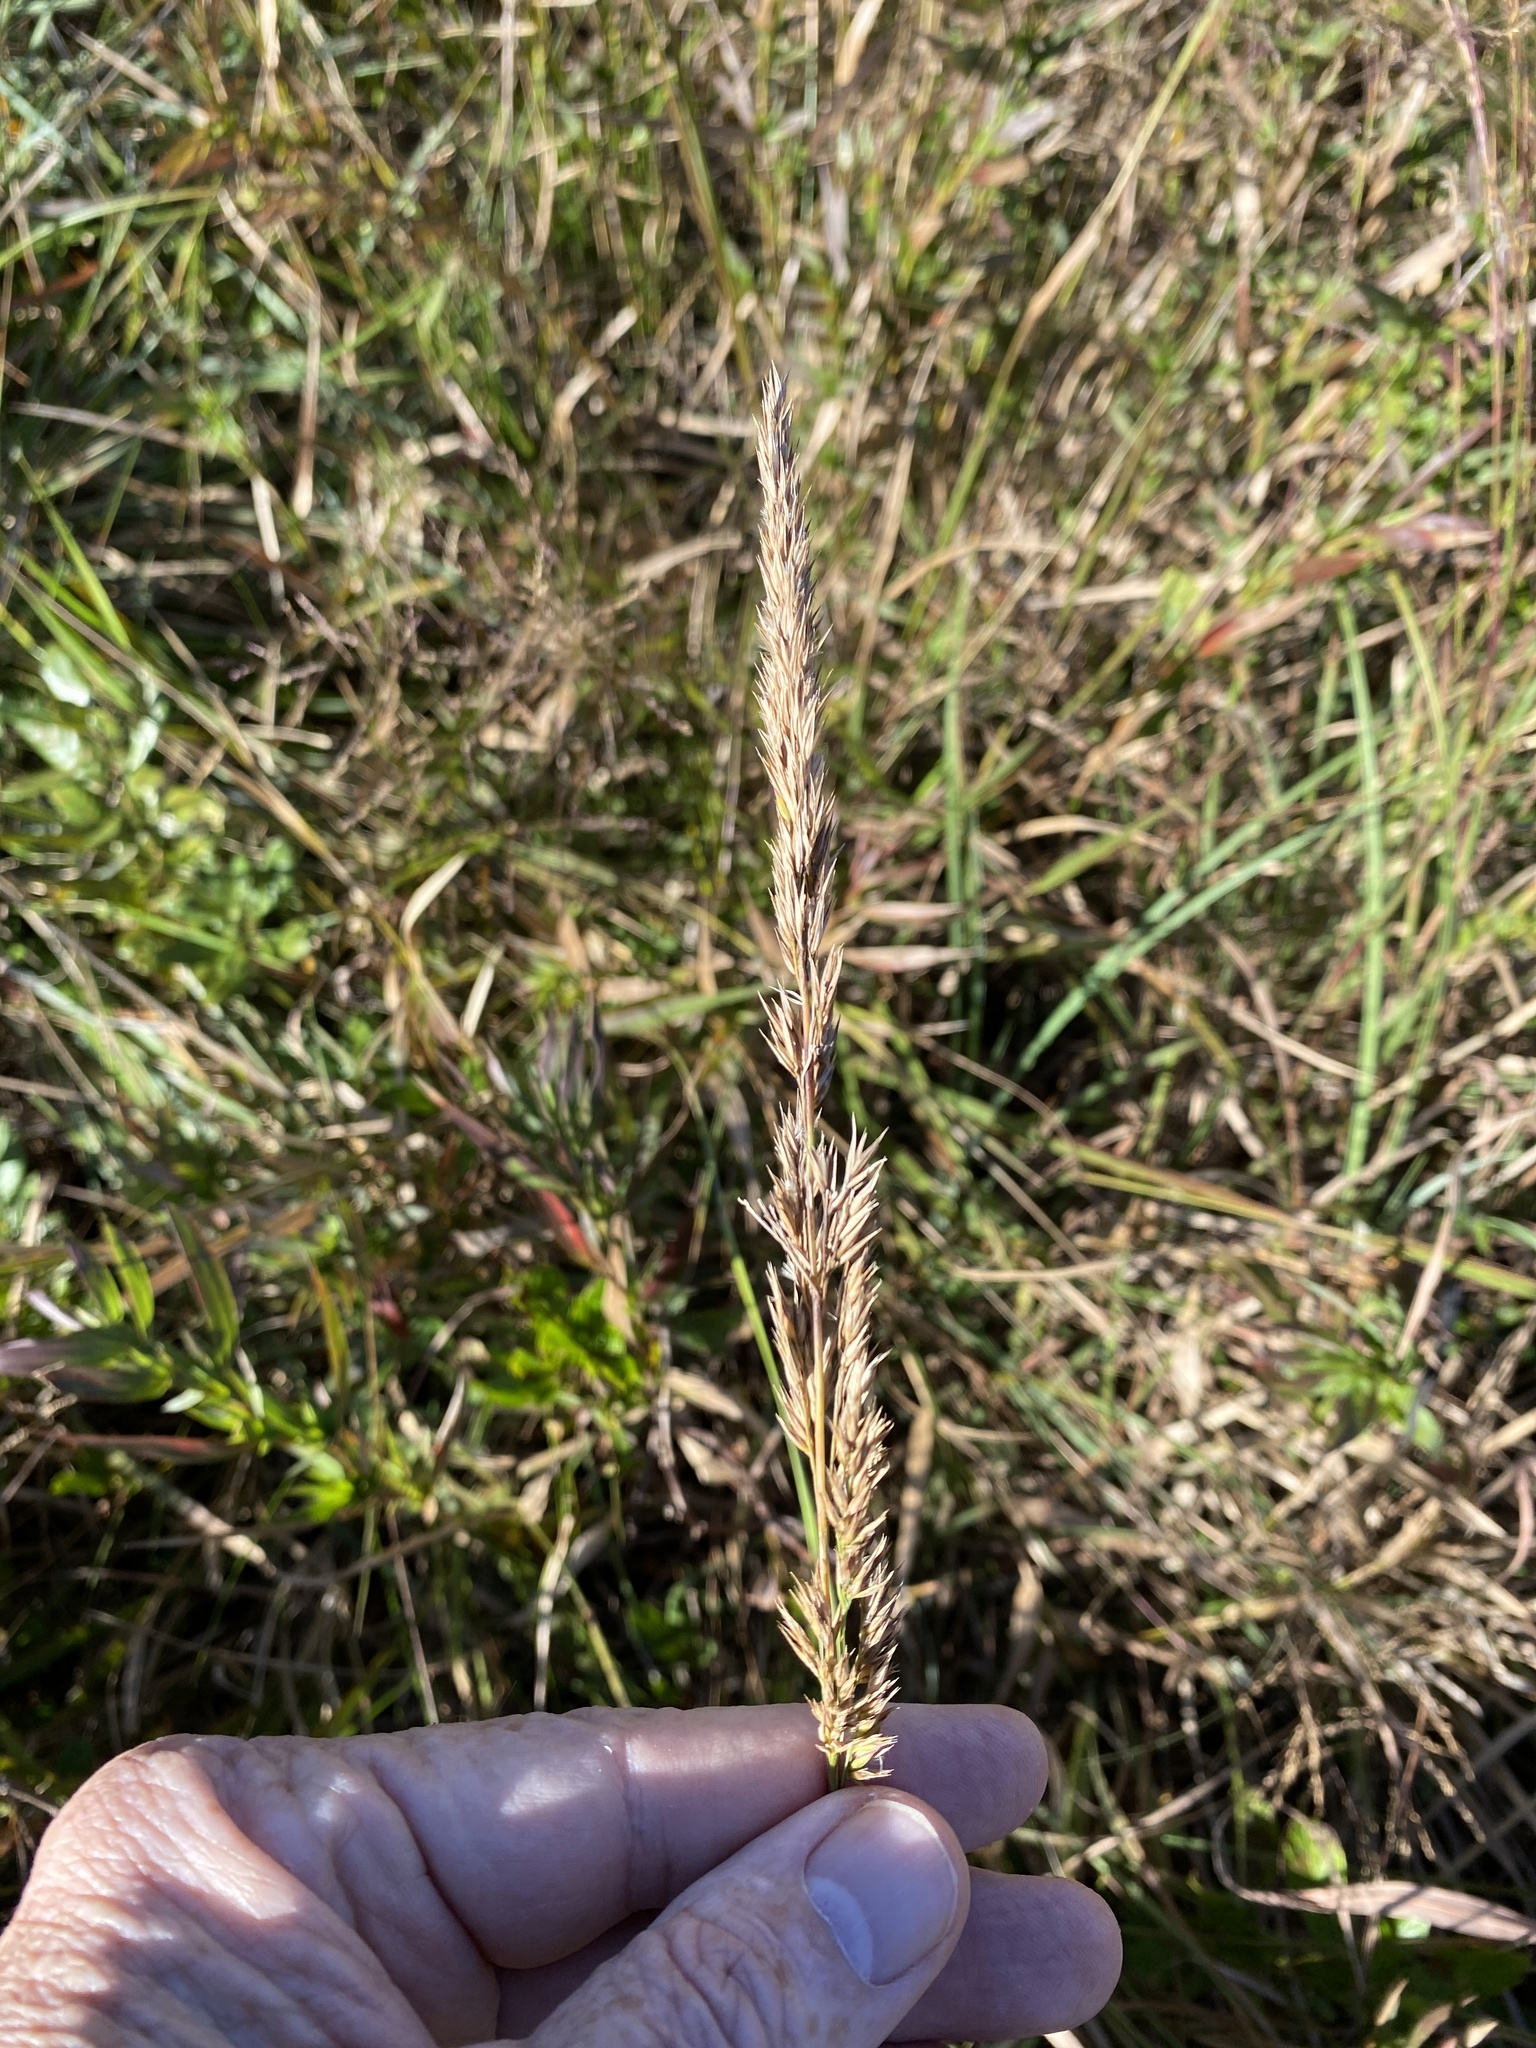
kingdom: Plantae
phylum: Tracheophyta
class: Liliopsida
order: Poales
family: Poaceae
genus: Greeneochloa
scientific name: Greeneochloa coarctata
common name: Small reedgrass
